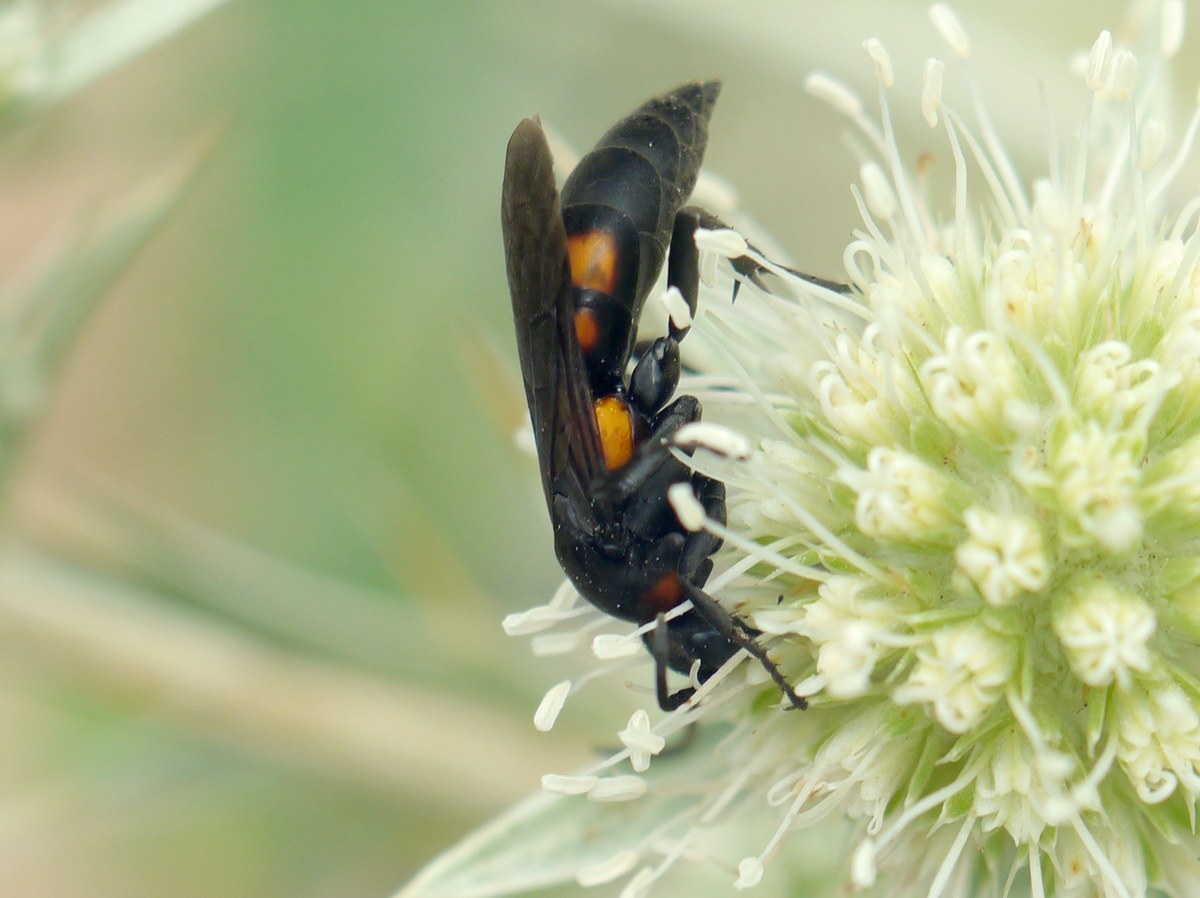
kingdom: Animalia
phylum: Arthropoda
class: Insecta
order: Hymenoptera
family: Pompilidae
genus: Eoferreola
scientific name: Eoferreola erythraea
